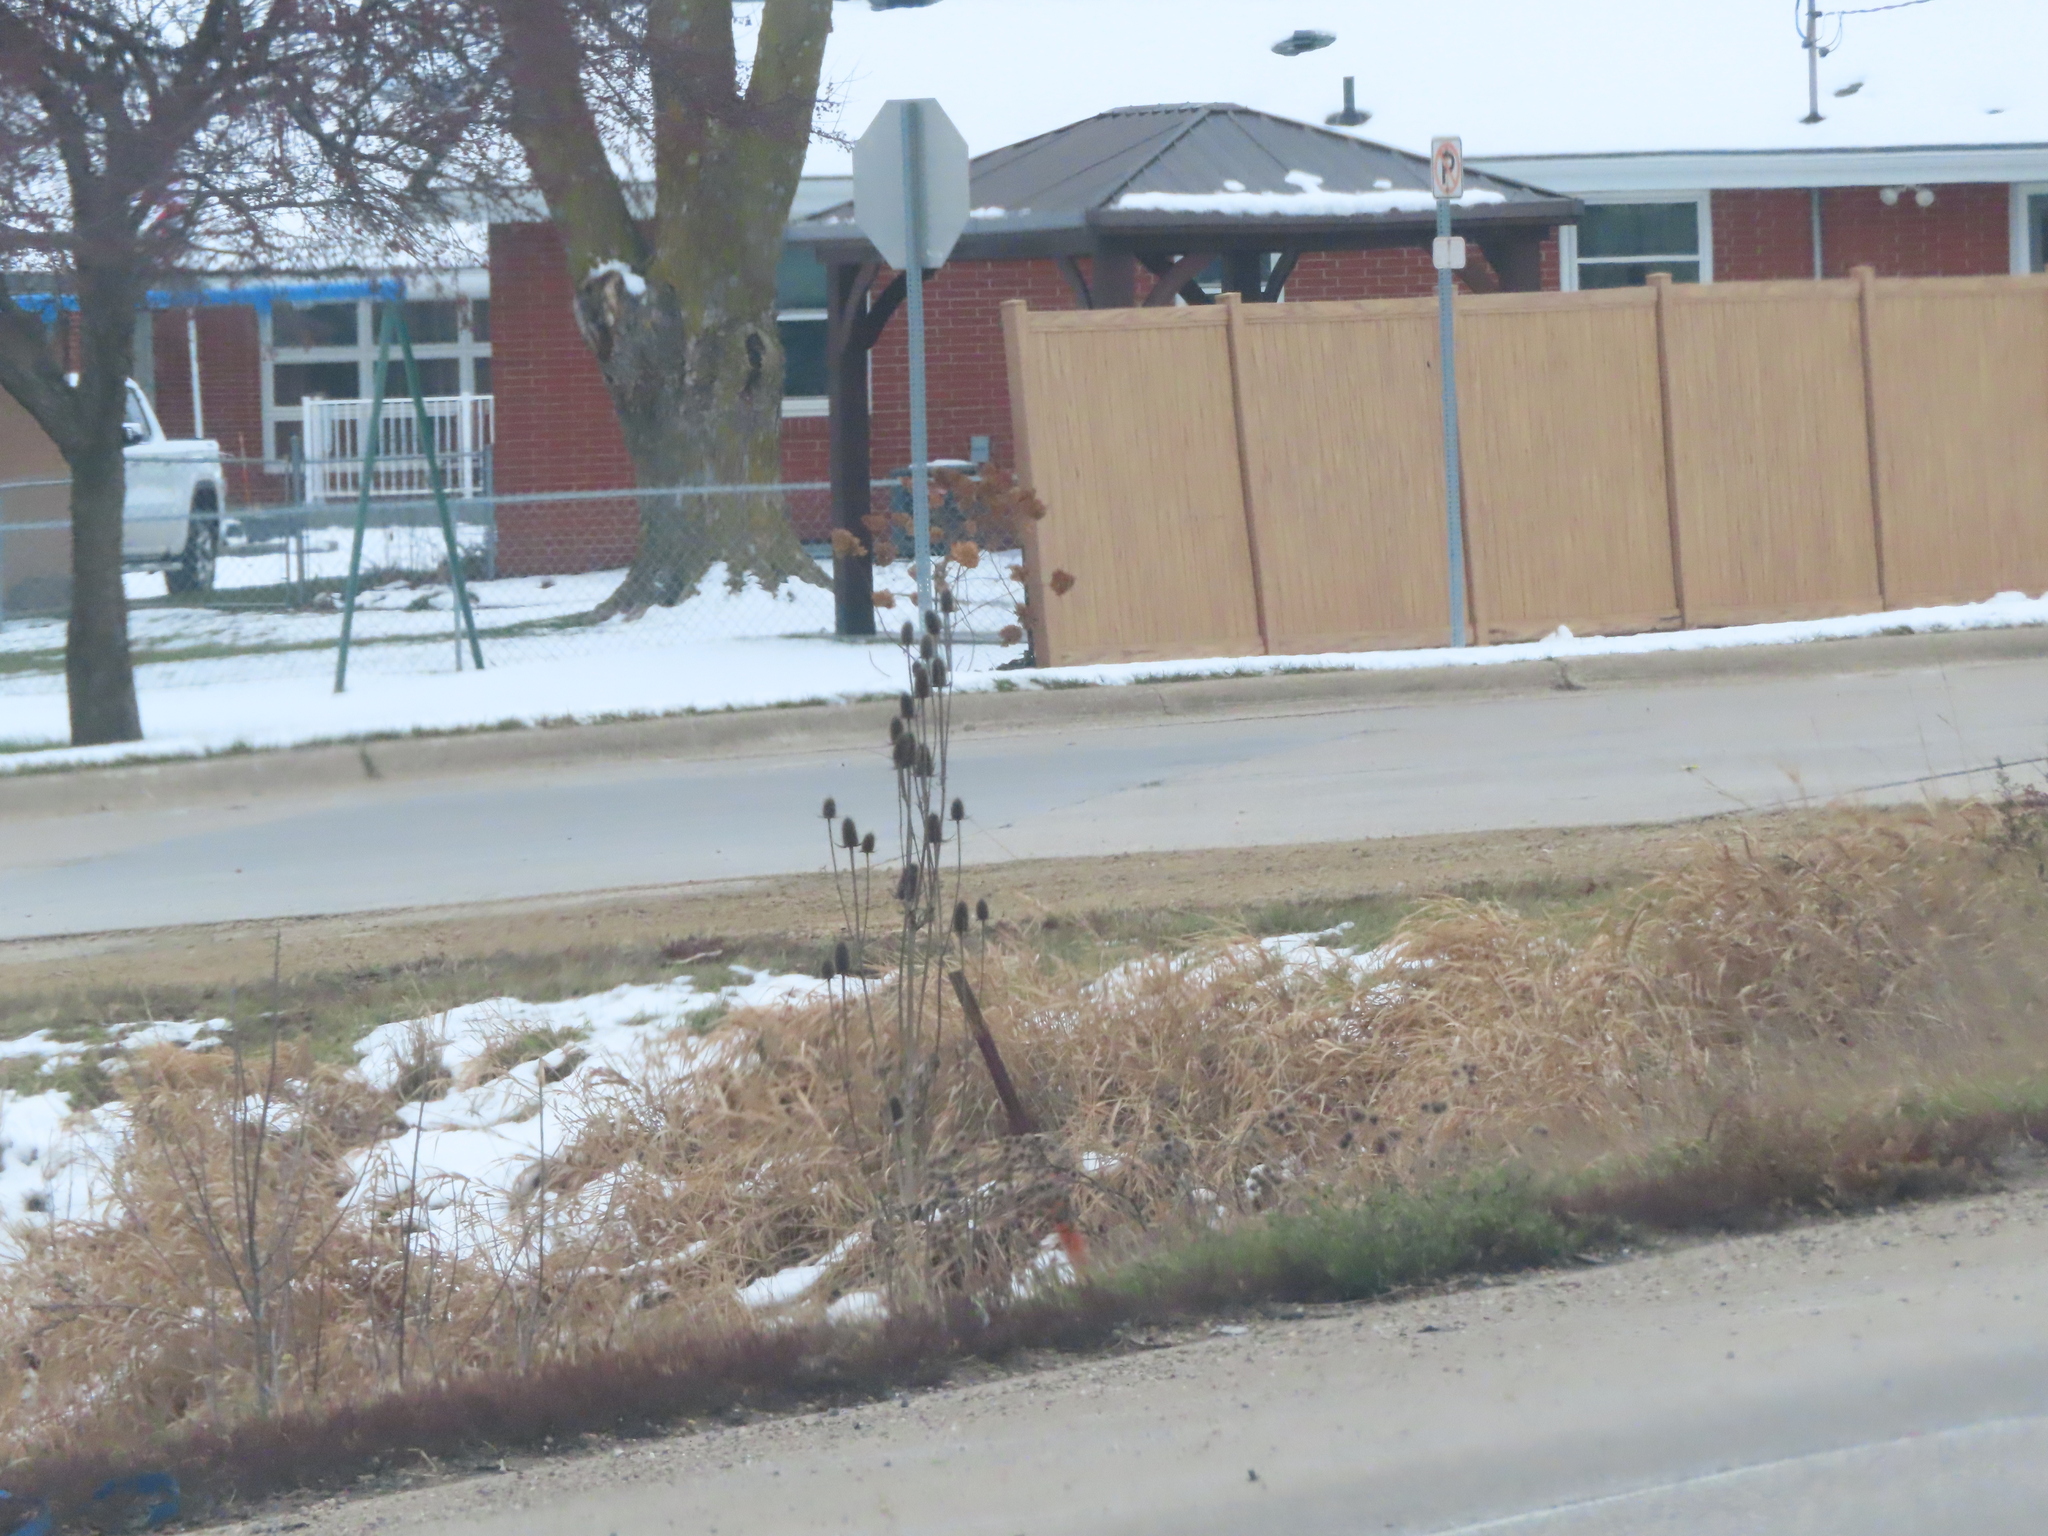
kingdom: Plantae
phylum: Tracheophyta
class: Magnoliopsida
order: Dipsacales
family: Caprifoliaceae
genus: Dipsacus
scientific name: Dipsacus laciniatus
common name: Cut-leaved teasel
